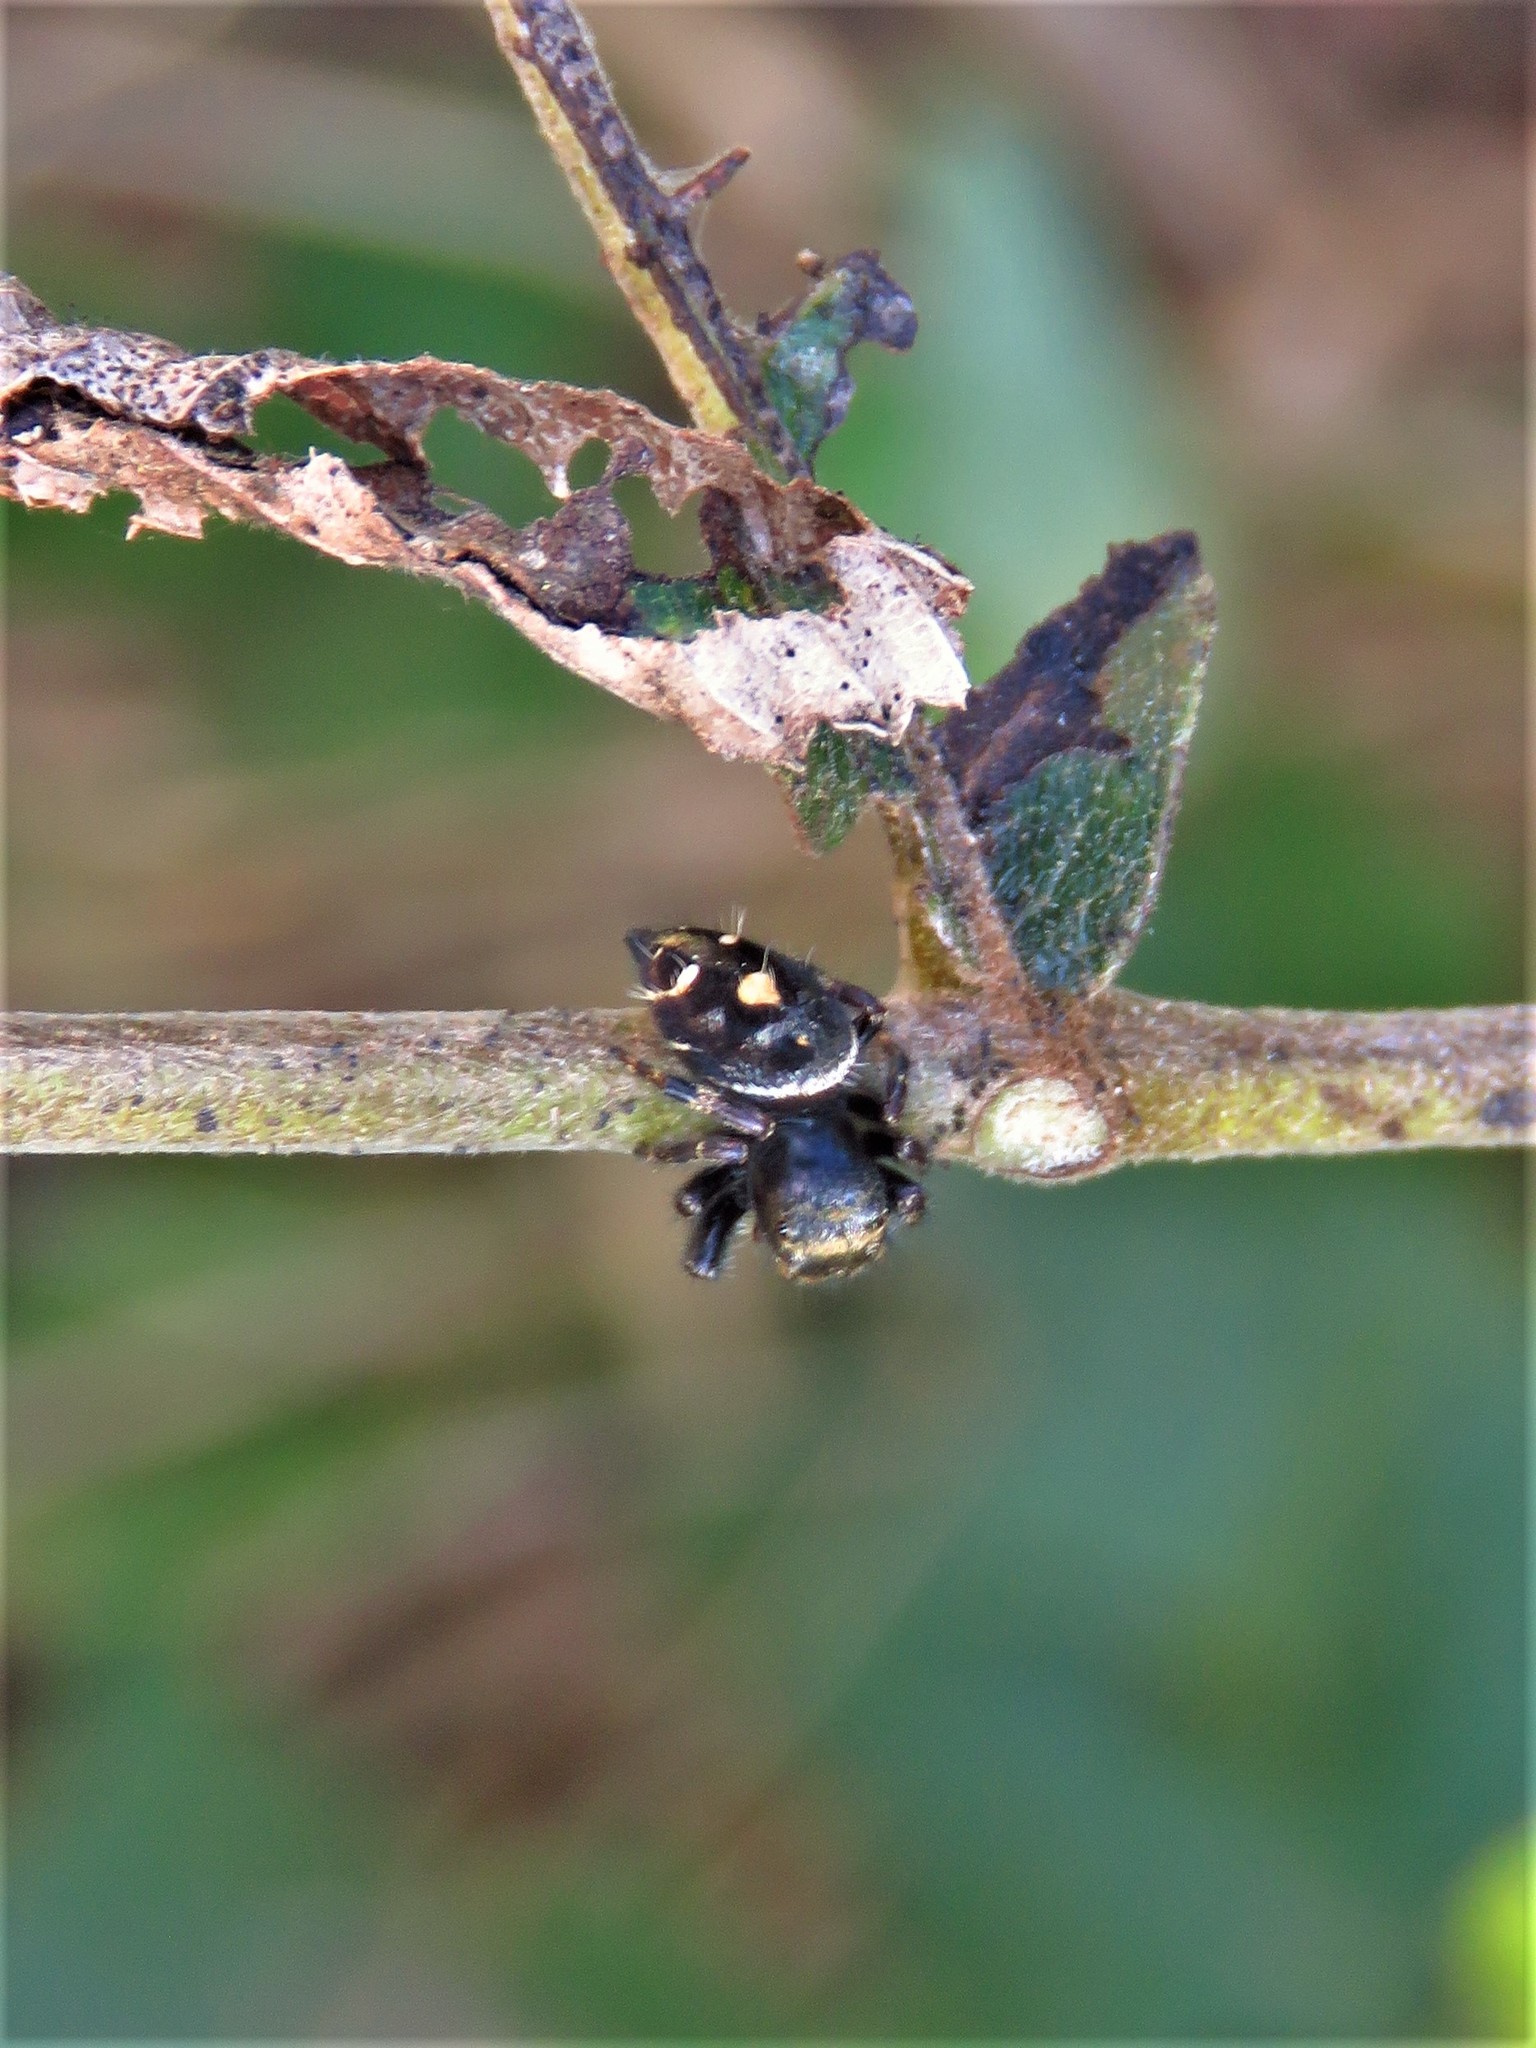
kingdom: Animalia
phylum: Arthropoda
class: Arachnida
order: Araneae
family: Salticidae
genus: Phidippus
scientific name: Phidippus audax
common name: Bold jumper
